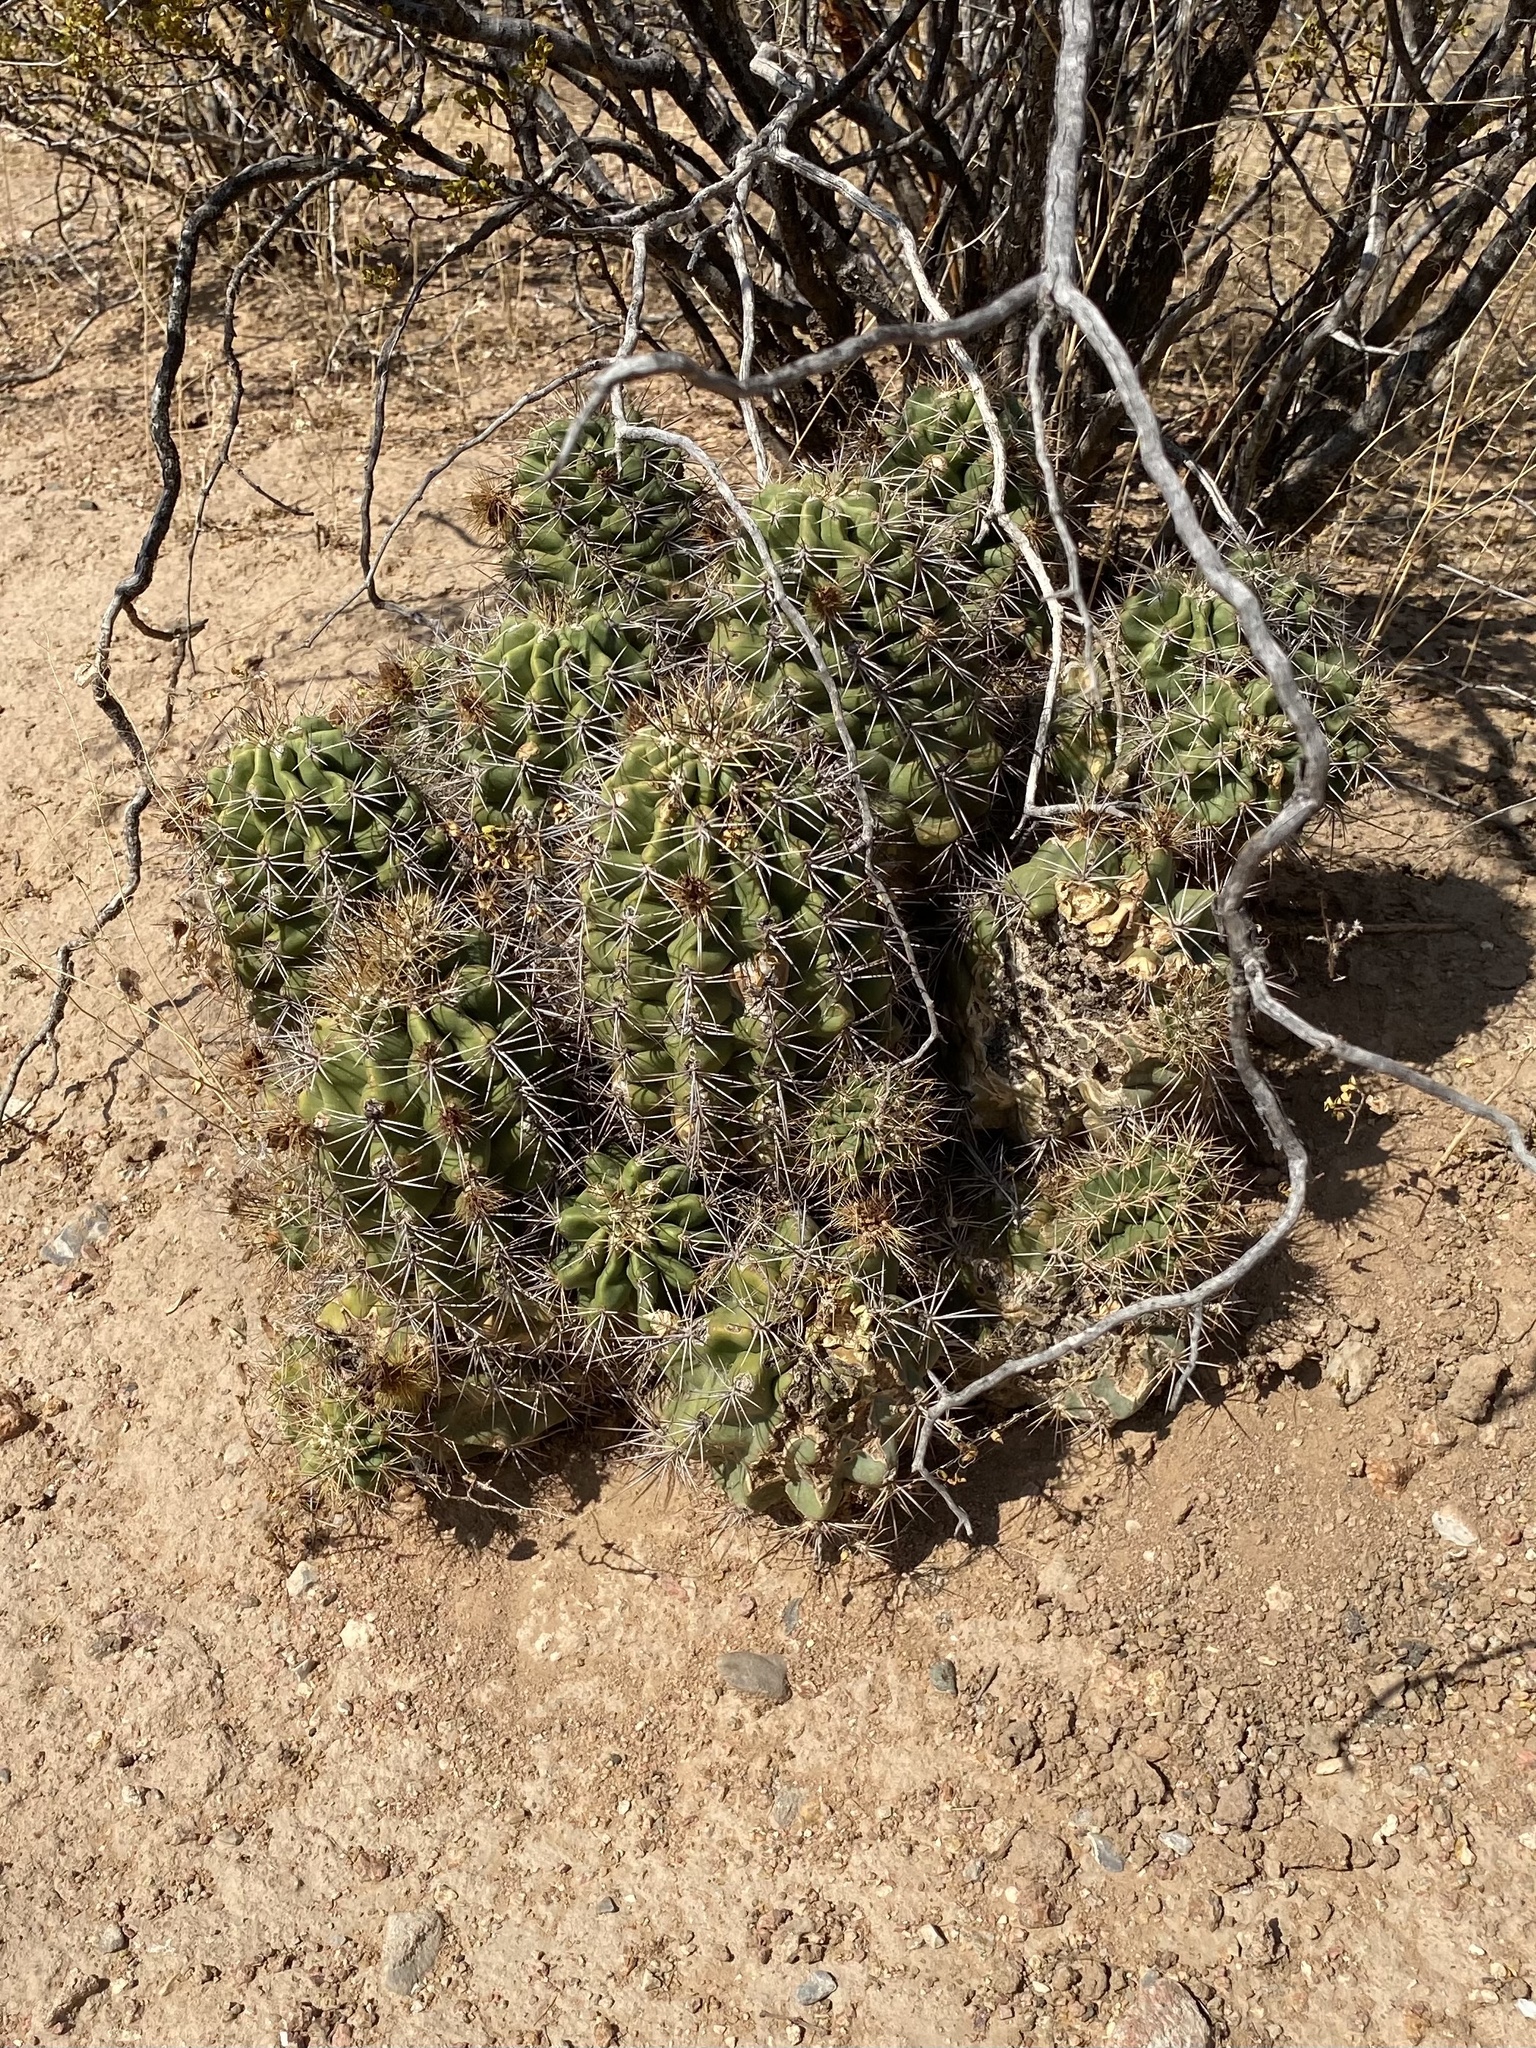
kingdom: Plantae
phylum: Tracheophyta
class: Magnoliopsida
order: Caryophyllales
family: Cactaceae
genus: Echinocereus
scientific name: Echinocereus coccineus
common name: Scarlet hedgehog cactus
